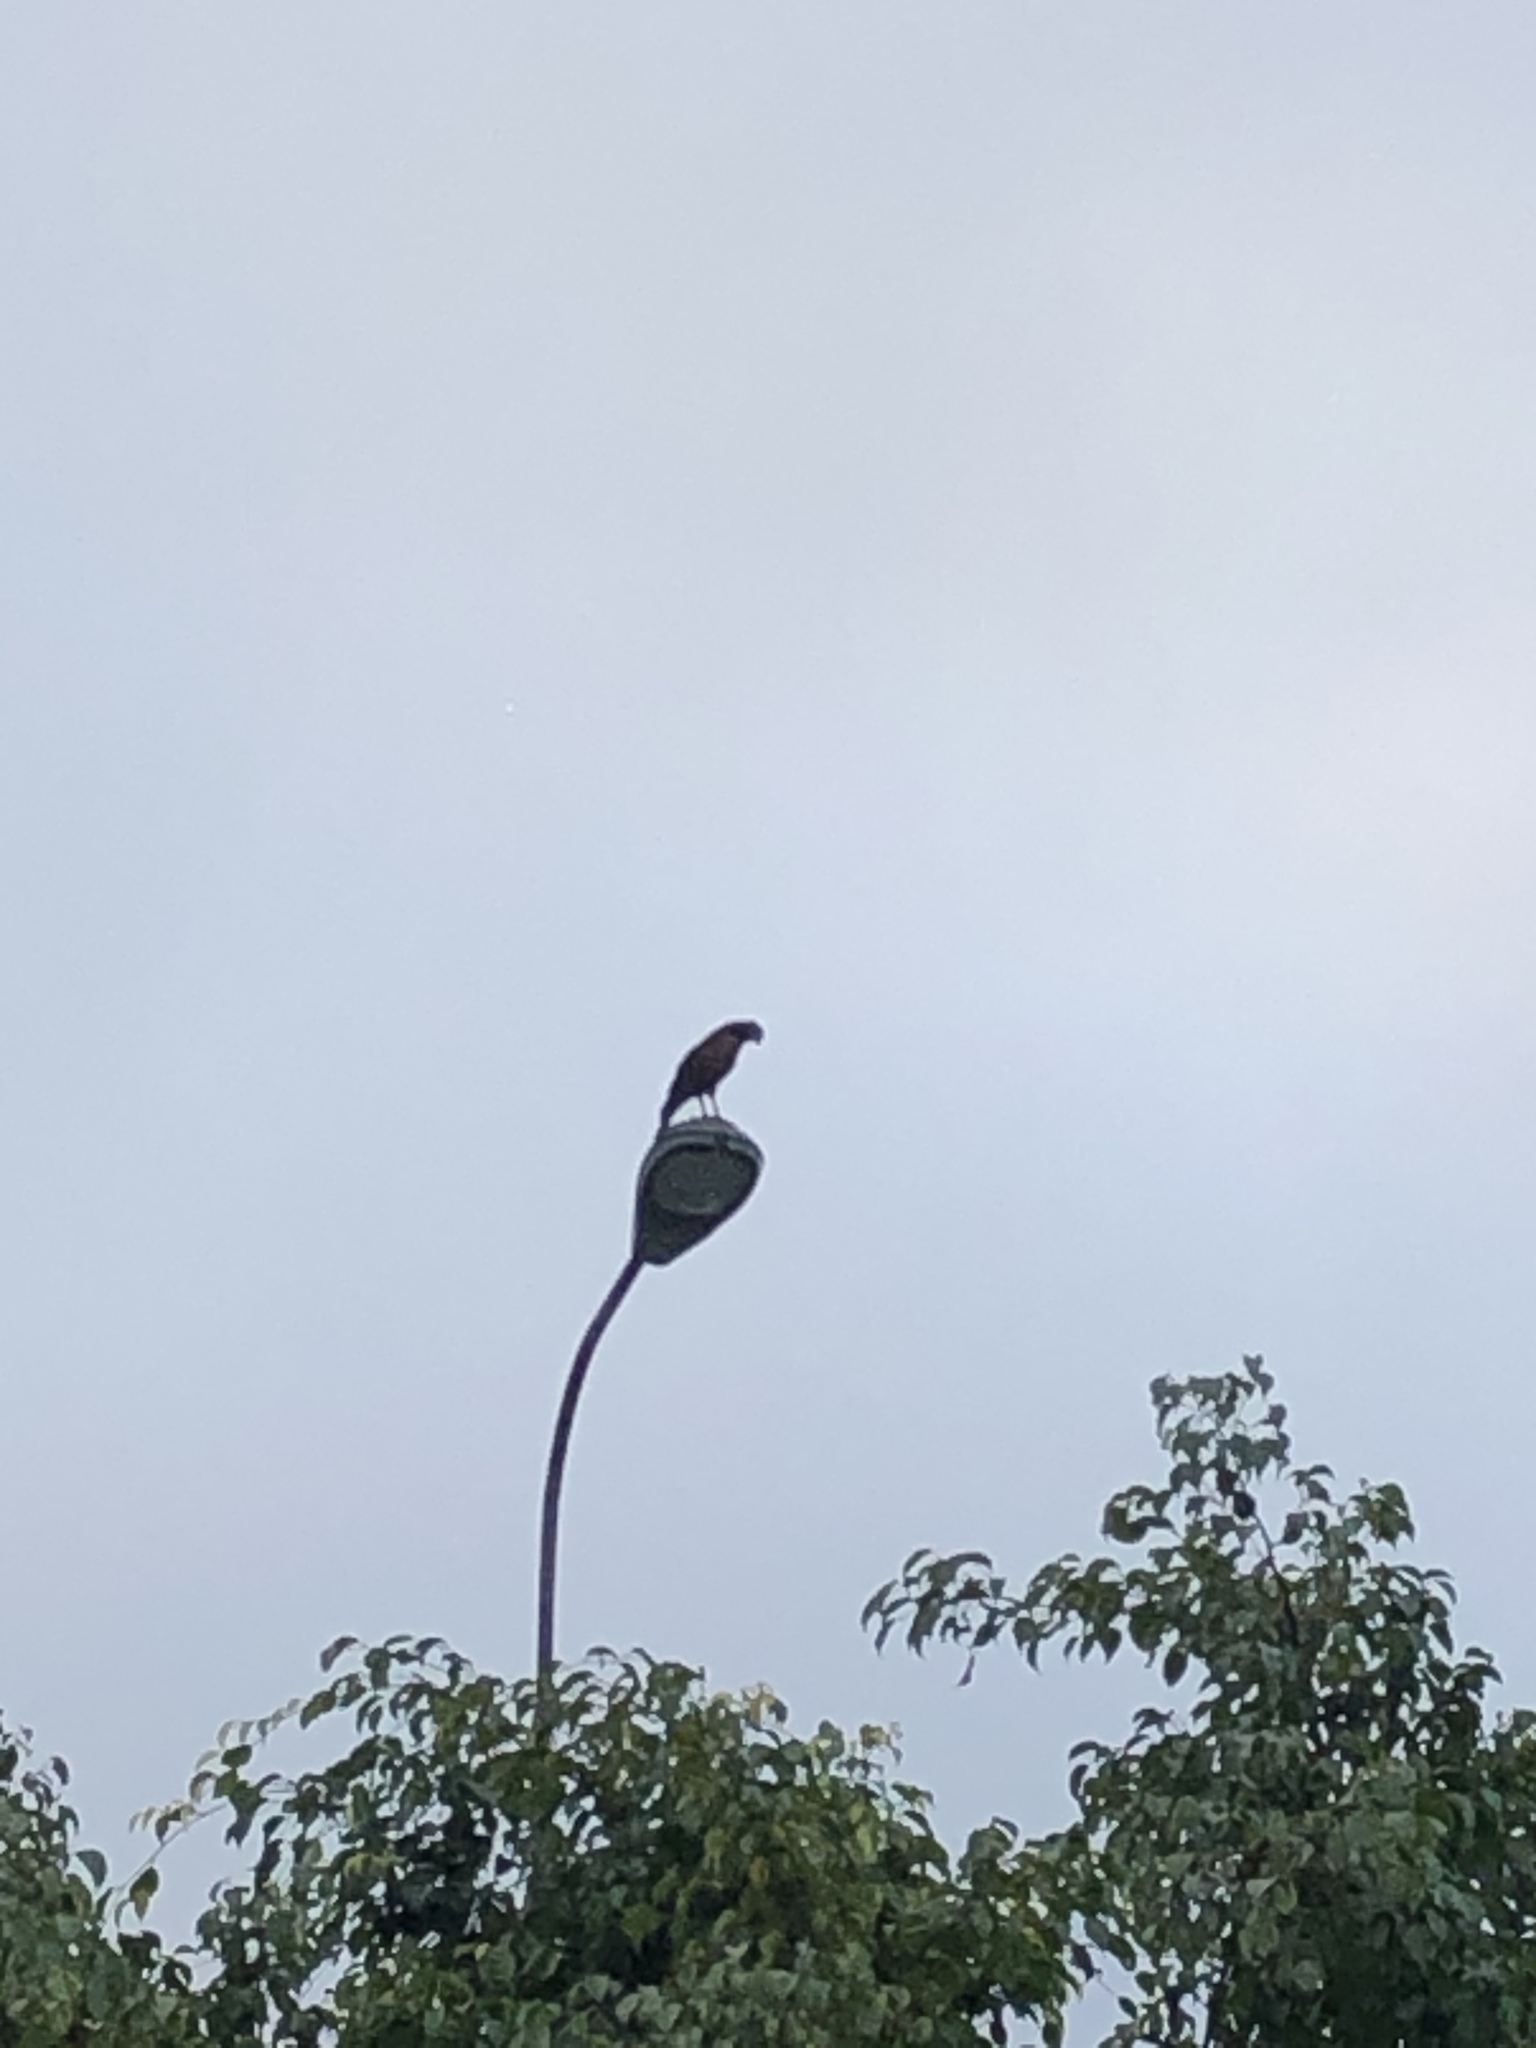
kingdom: Animalia
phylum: Chordata
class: Aves
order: Accipitriformes
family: Accipitridae
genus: Parabuteo
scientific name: Parabuteo unicinctus
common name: Harris's hawk
